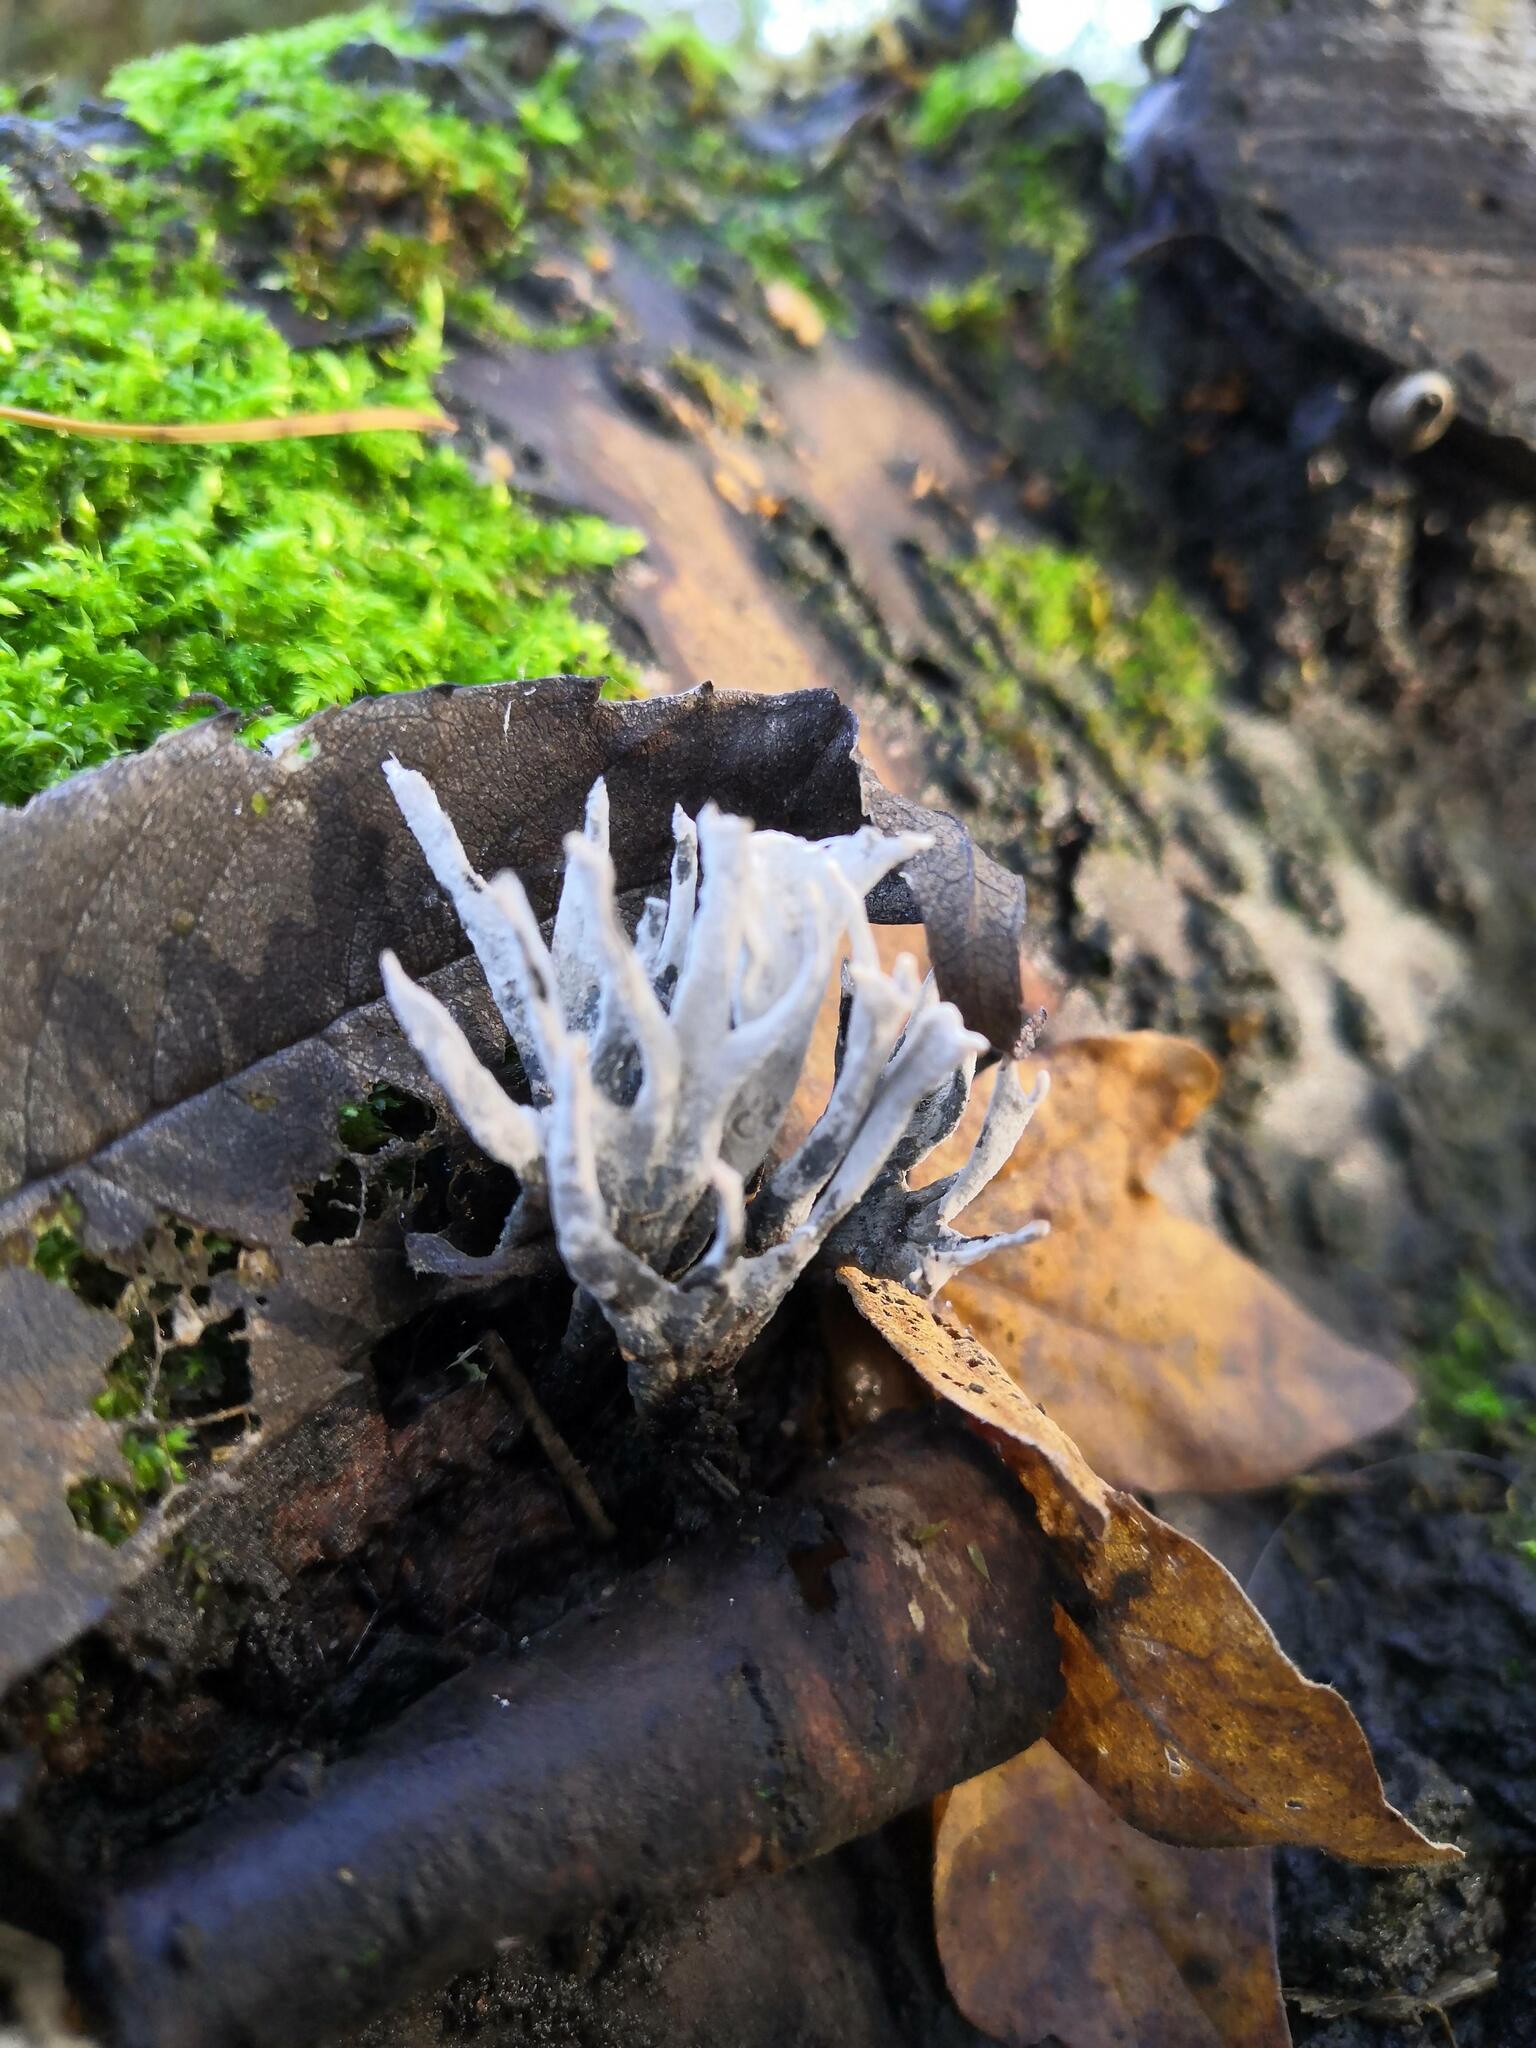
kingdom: Fungi
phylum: Ascomycota
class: Sordariomycetes
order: Xylariales
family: Xylariaceae
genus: Xylaria
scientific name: Xylaria hypoxylon
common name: Candle-snuff fungus
